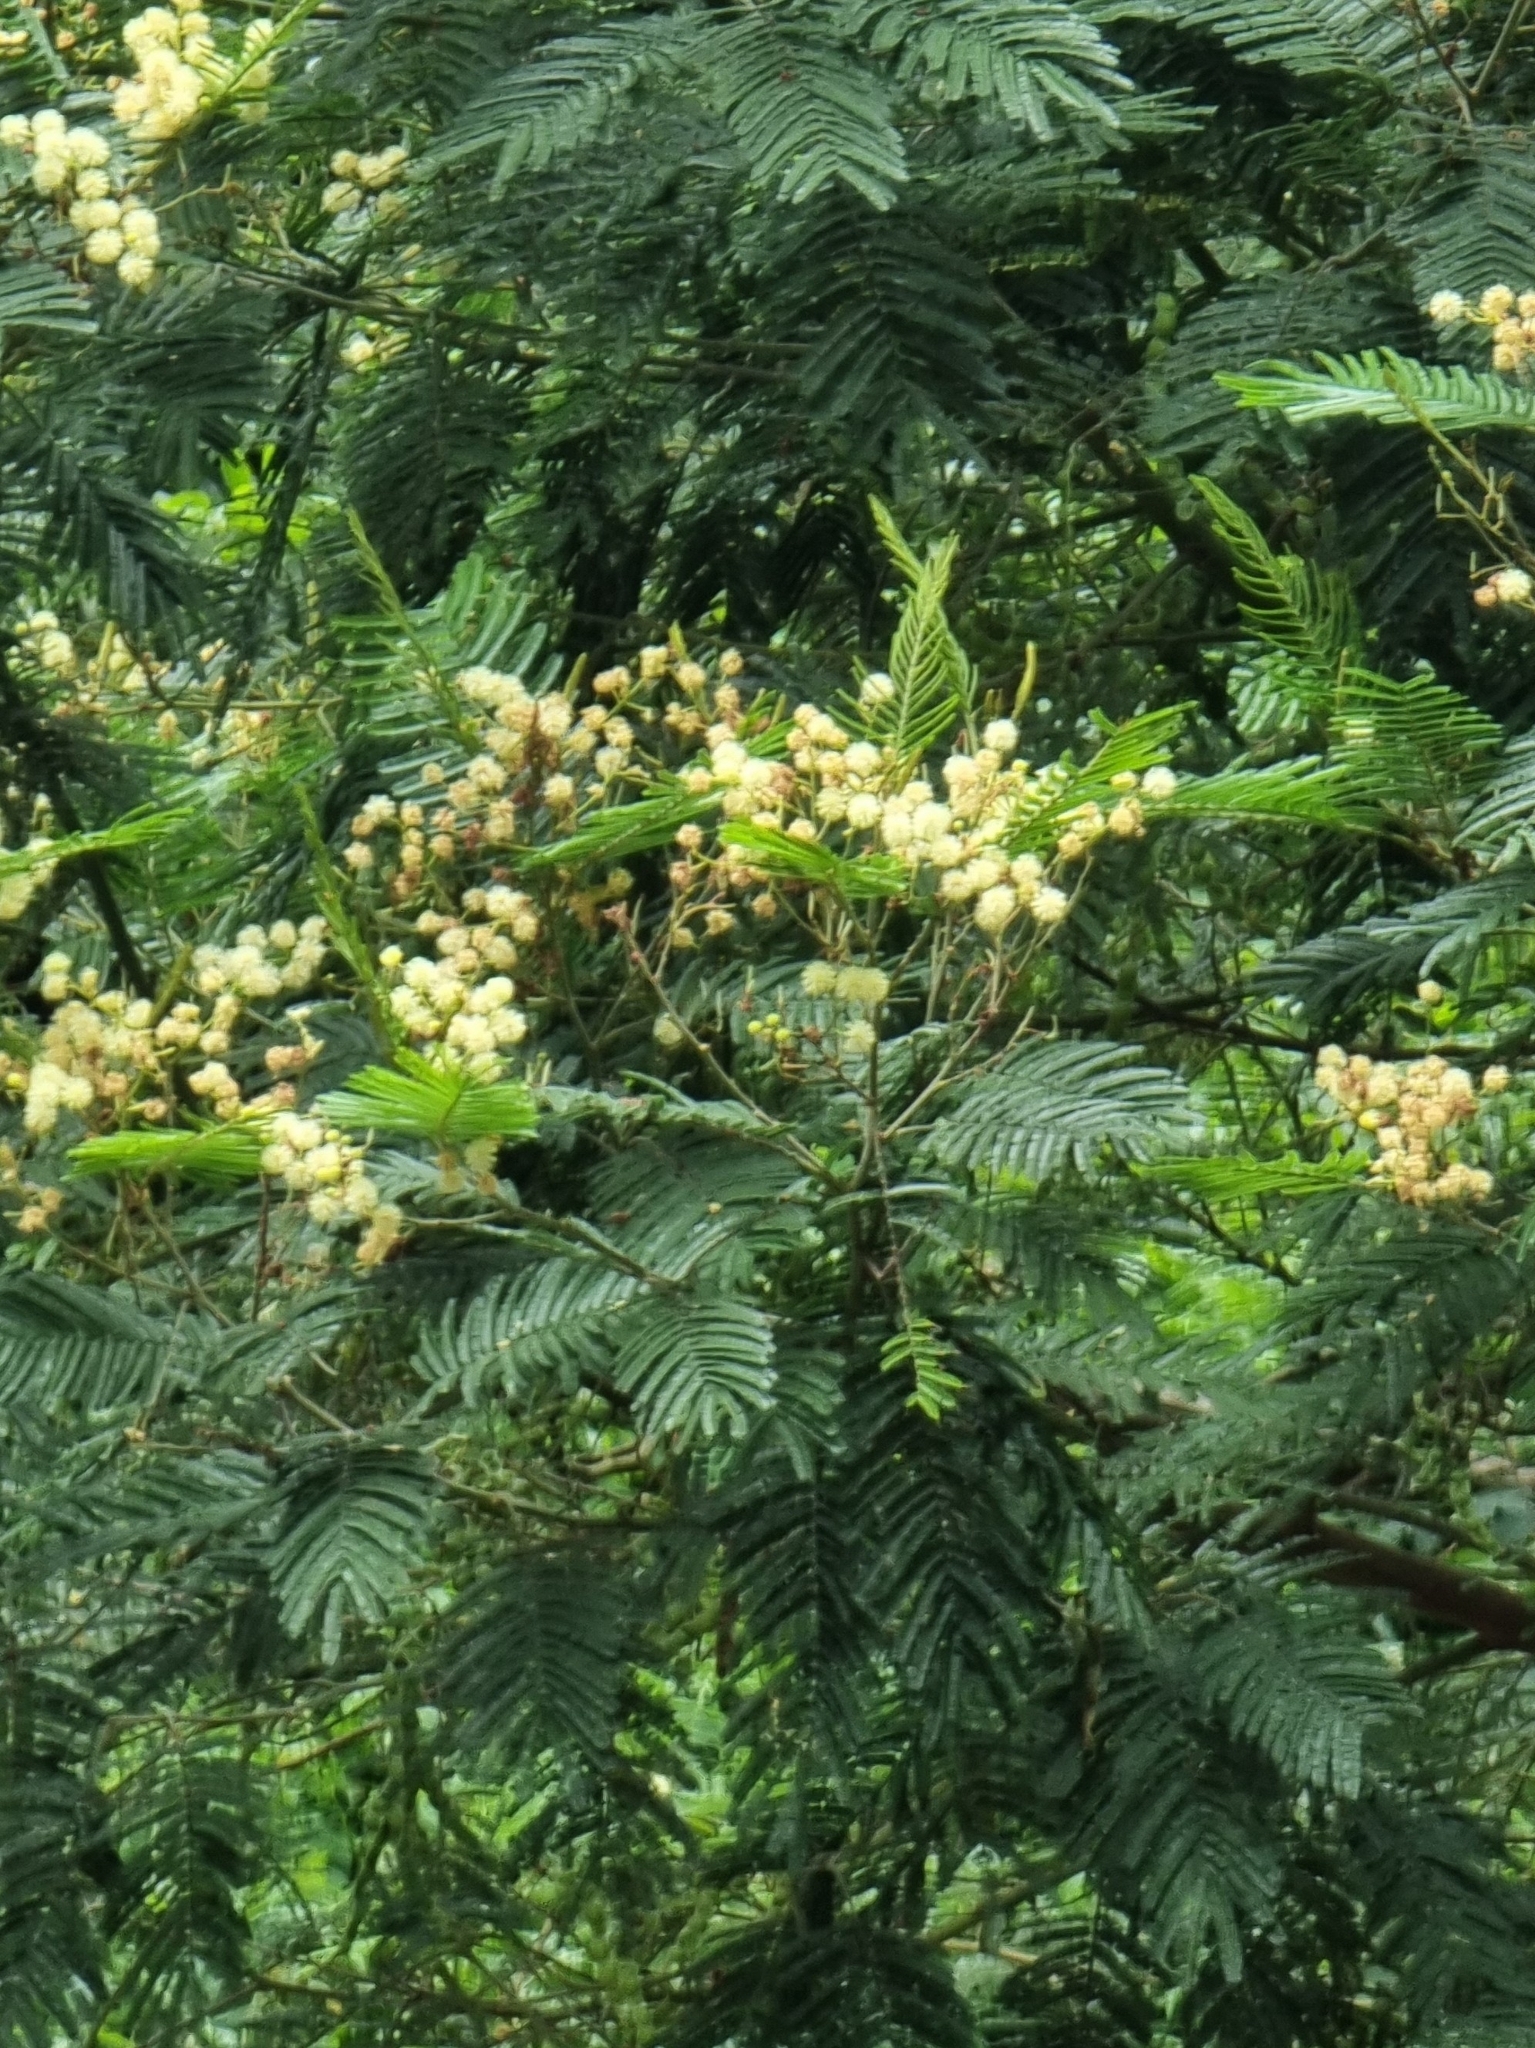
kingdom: Plantae
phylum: Tracheophyta
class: Magnoliopsida
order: Fabales
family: Fabaceae
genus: Acacia
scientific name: Acacia mearnsii
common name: Black wattle
